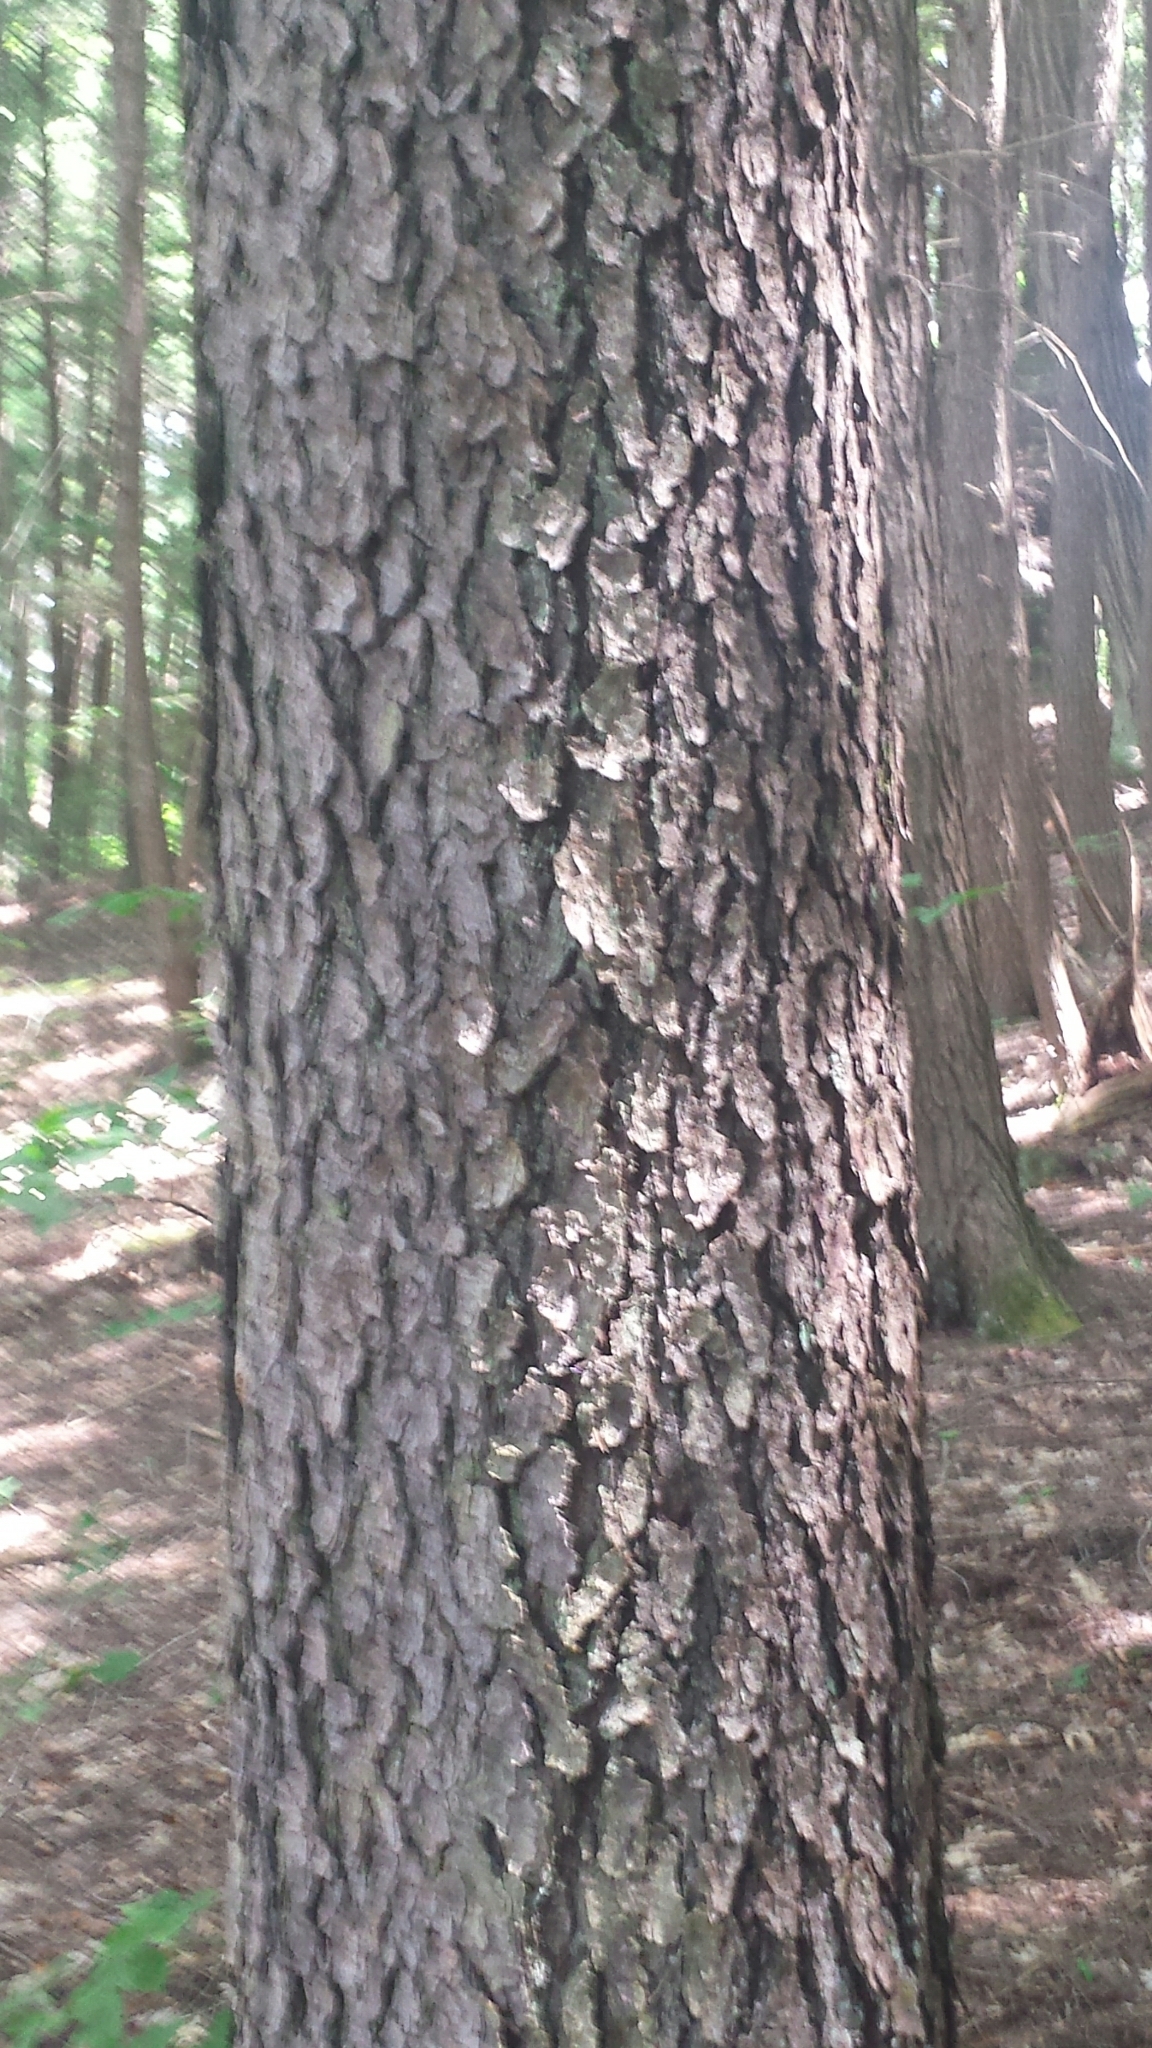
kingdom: Plantae
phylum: Tracheophyta
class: Magnoliopsida
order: Rosales
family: Rosaceae
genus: Prunus
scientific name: Prunus serotina
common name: Black cherry
